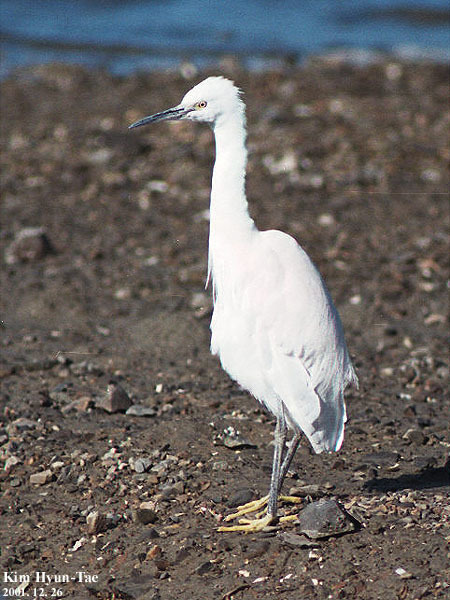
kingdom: Animalia
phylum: Chordata
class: Aves
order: Pelecaniformes
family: Ardeidae
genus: Egretta
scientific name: Egretta garzetta
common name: Little egret
